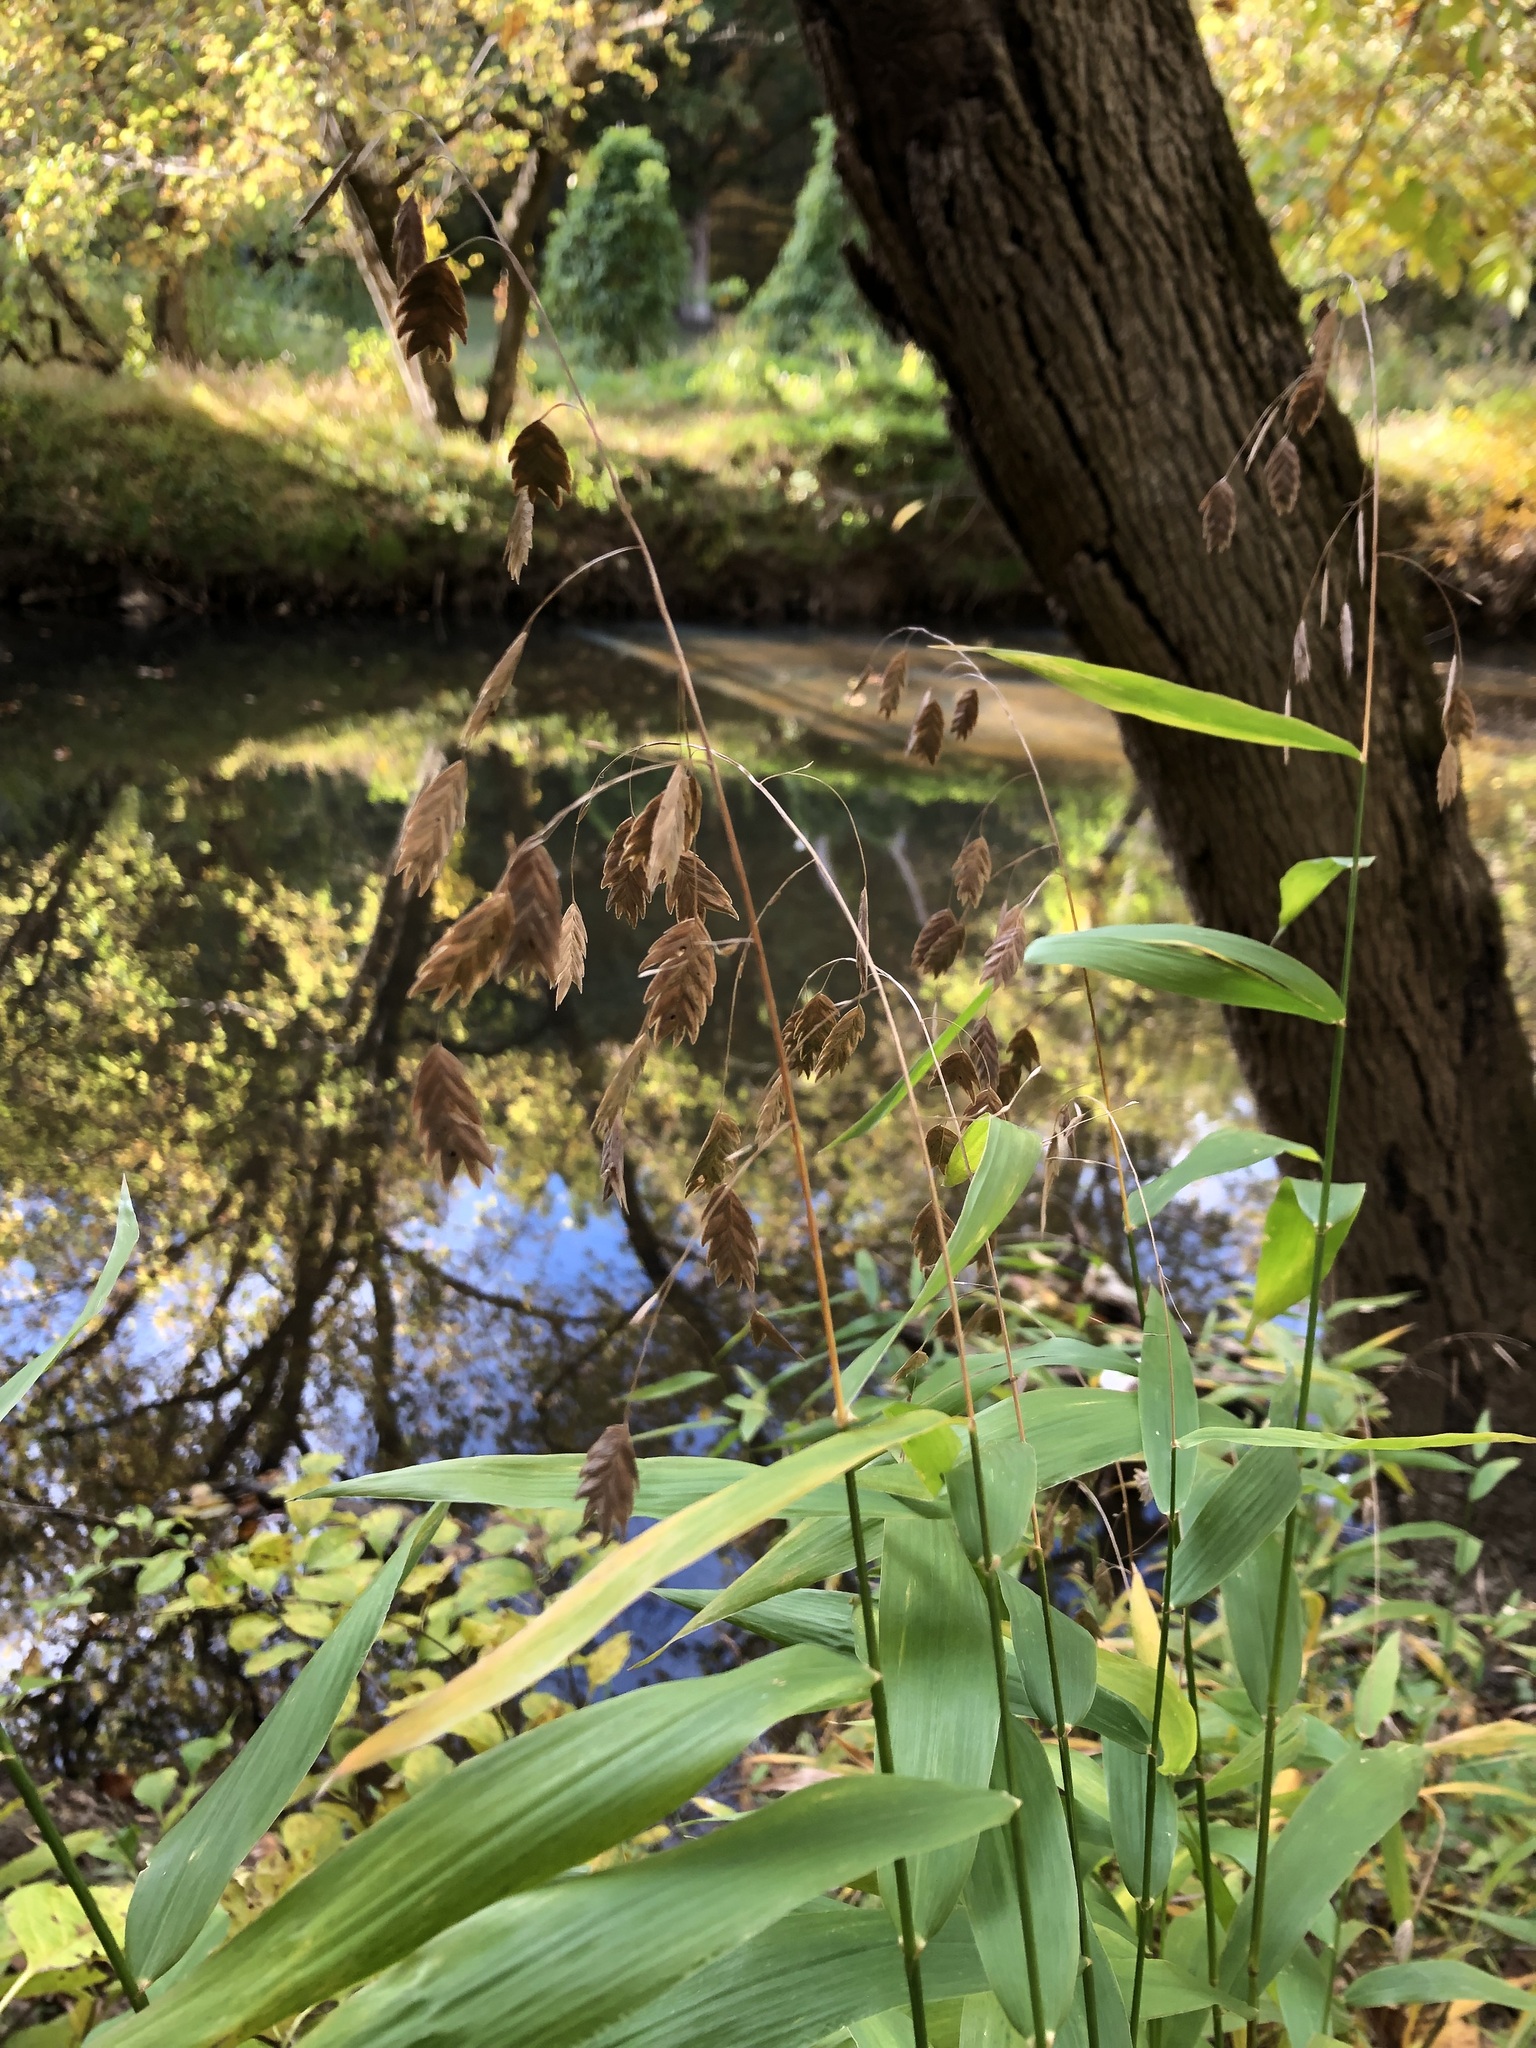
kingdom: Plantae
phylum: Tracheophyta
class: Liliopsida
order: Poales
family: Poaceae
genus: Chasmanthium
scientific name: Chasmanthium latifolium
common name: Broad-leaved chasmanthium
